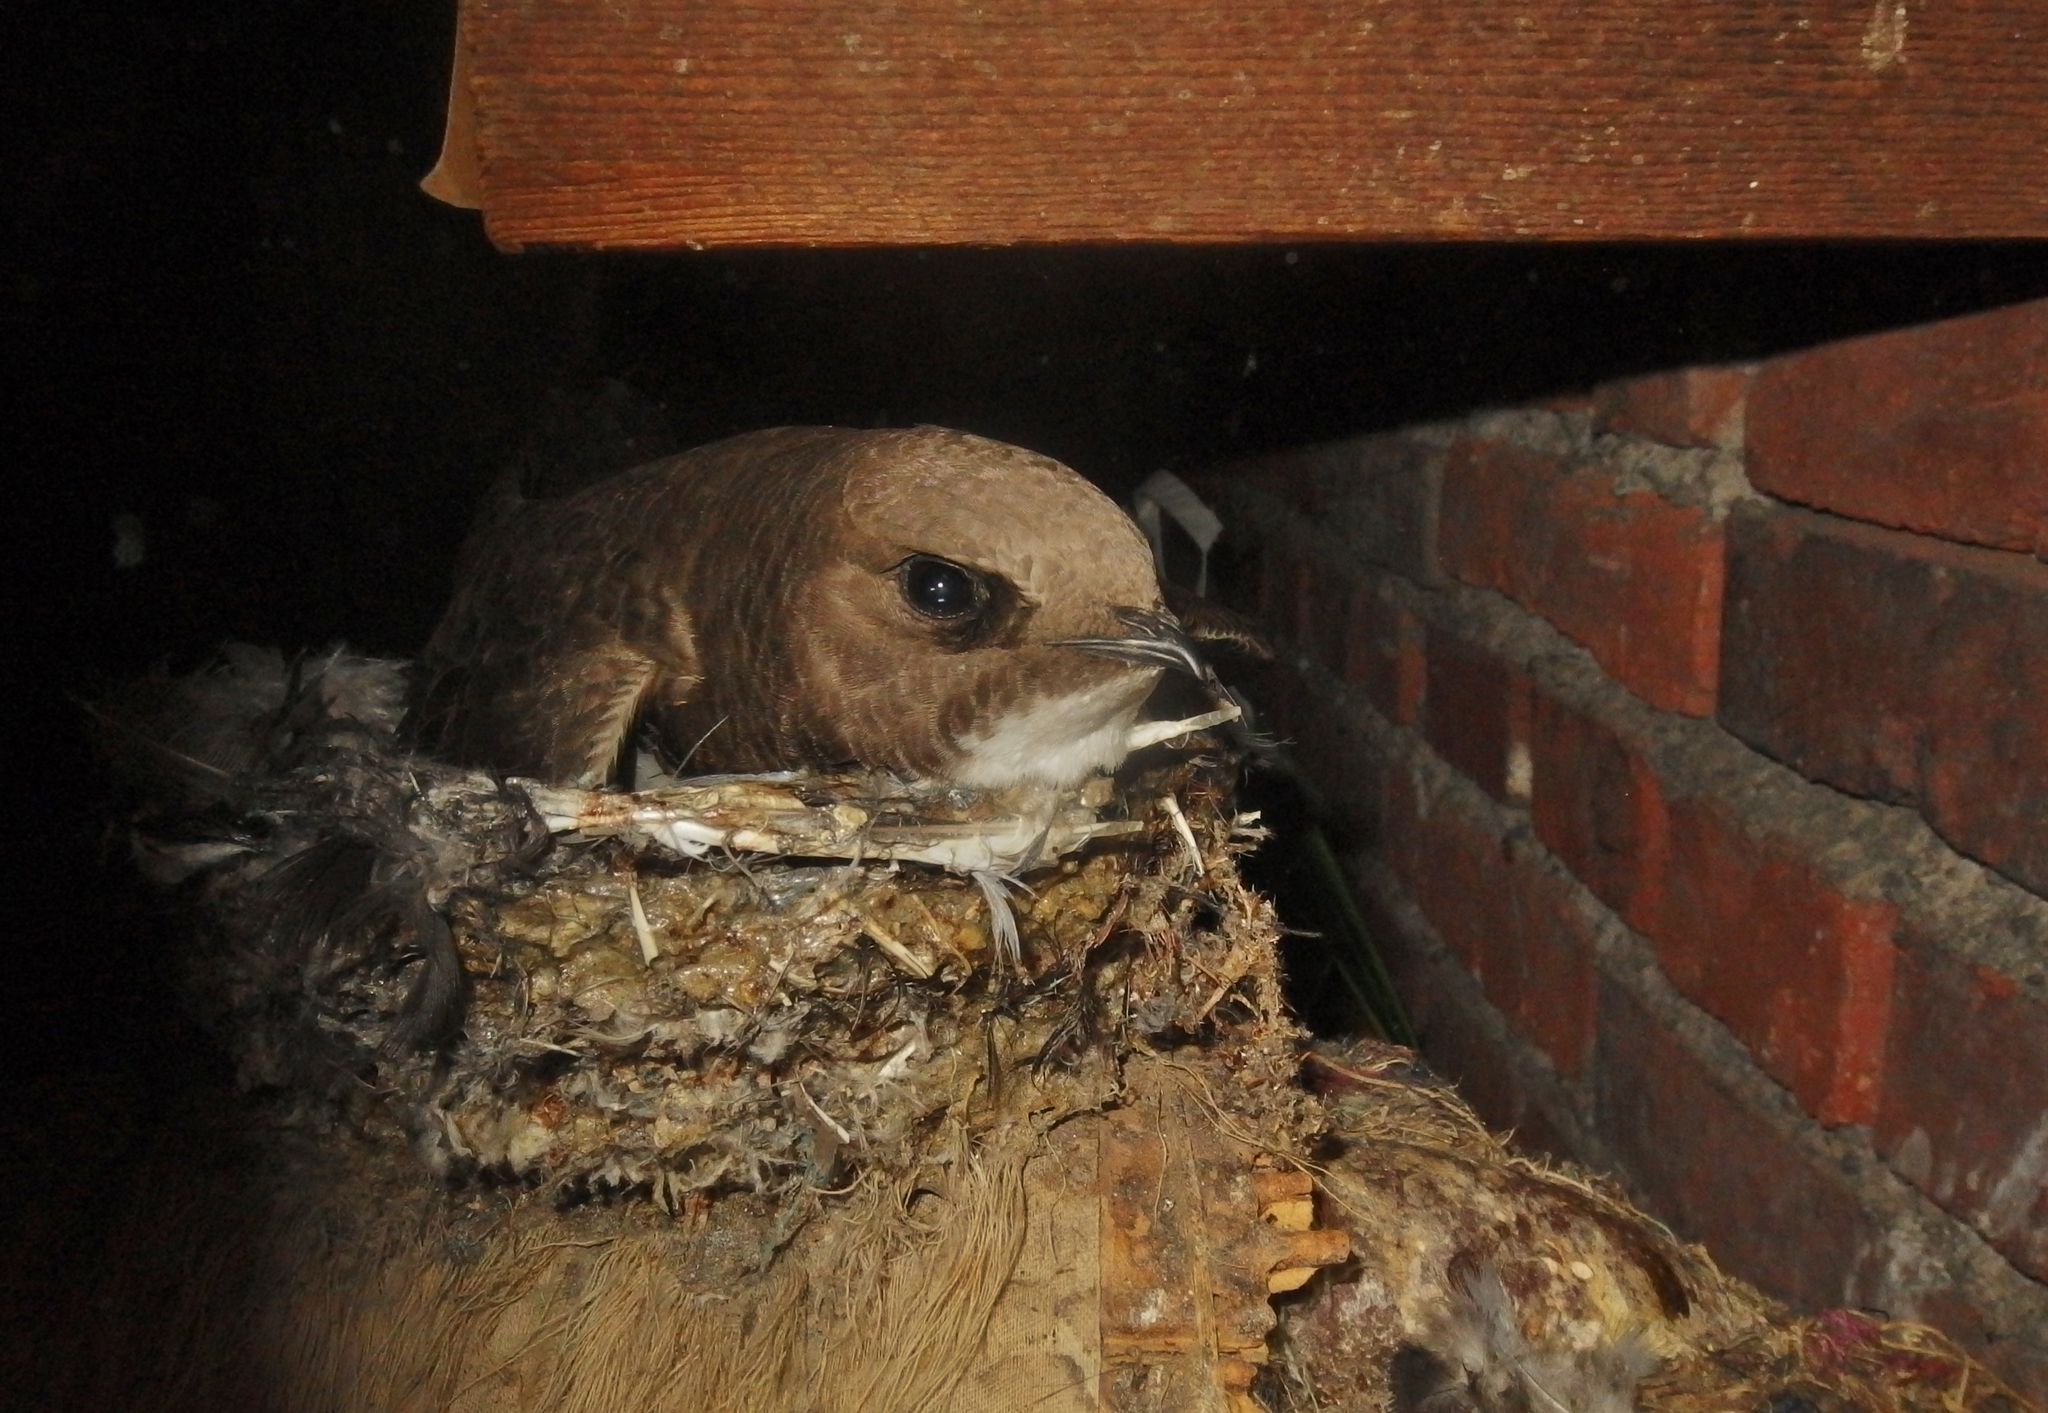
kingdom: Animalia
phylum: Chordata
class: Aves
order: Apodiformes
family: Apodidae
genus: Tachymarptis
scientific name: Tachymarptis melba
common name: Alpine swift
